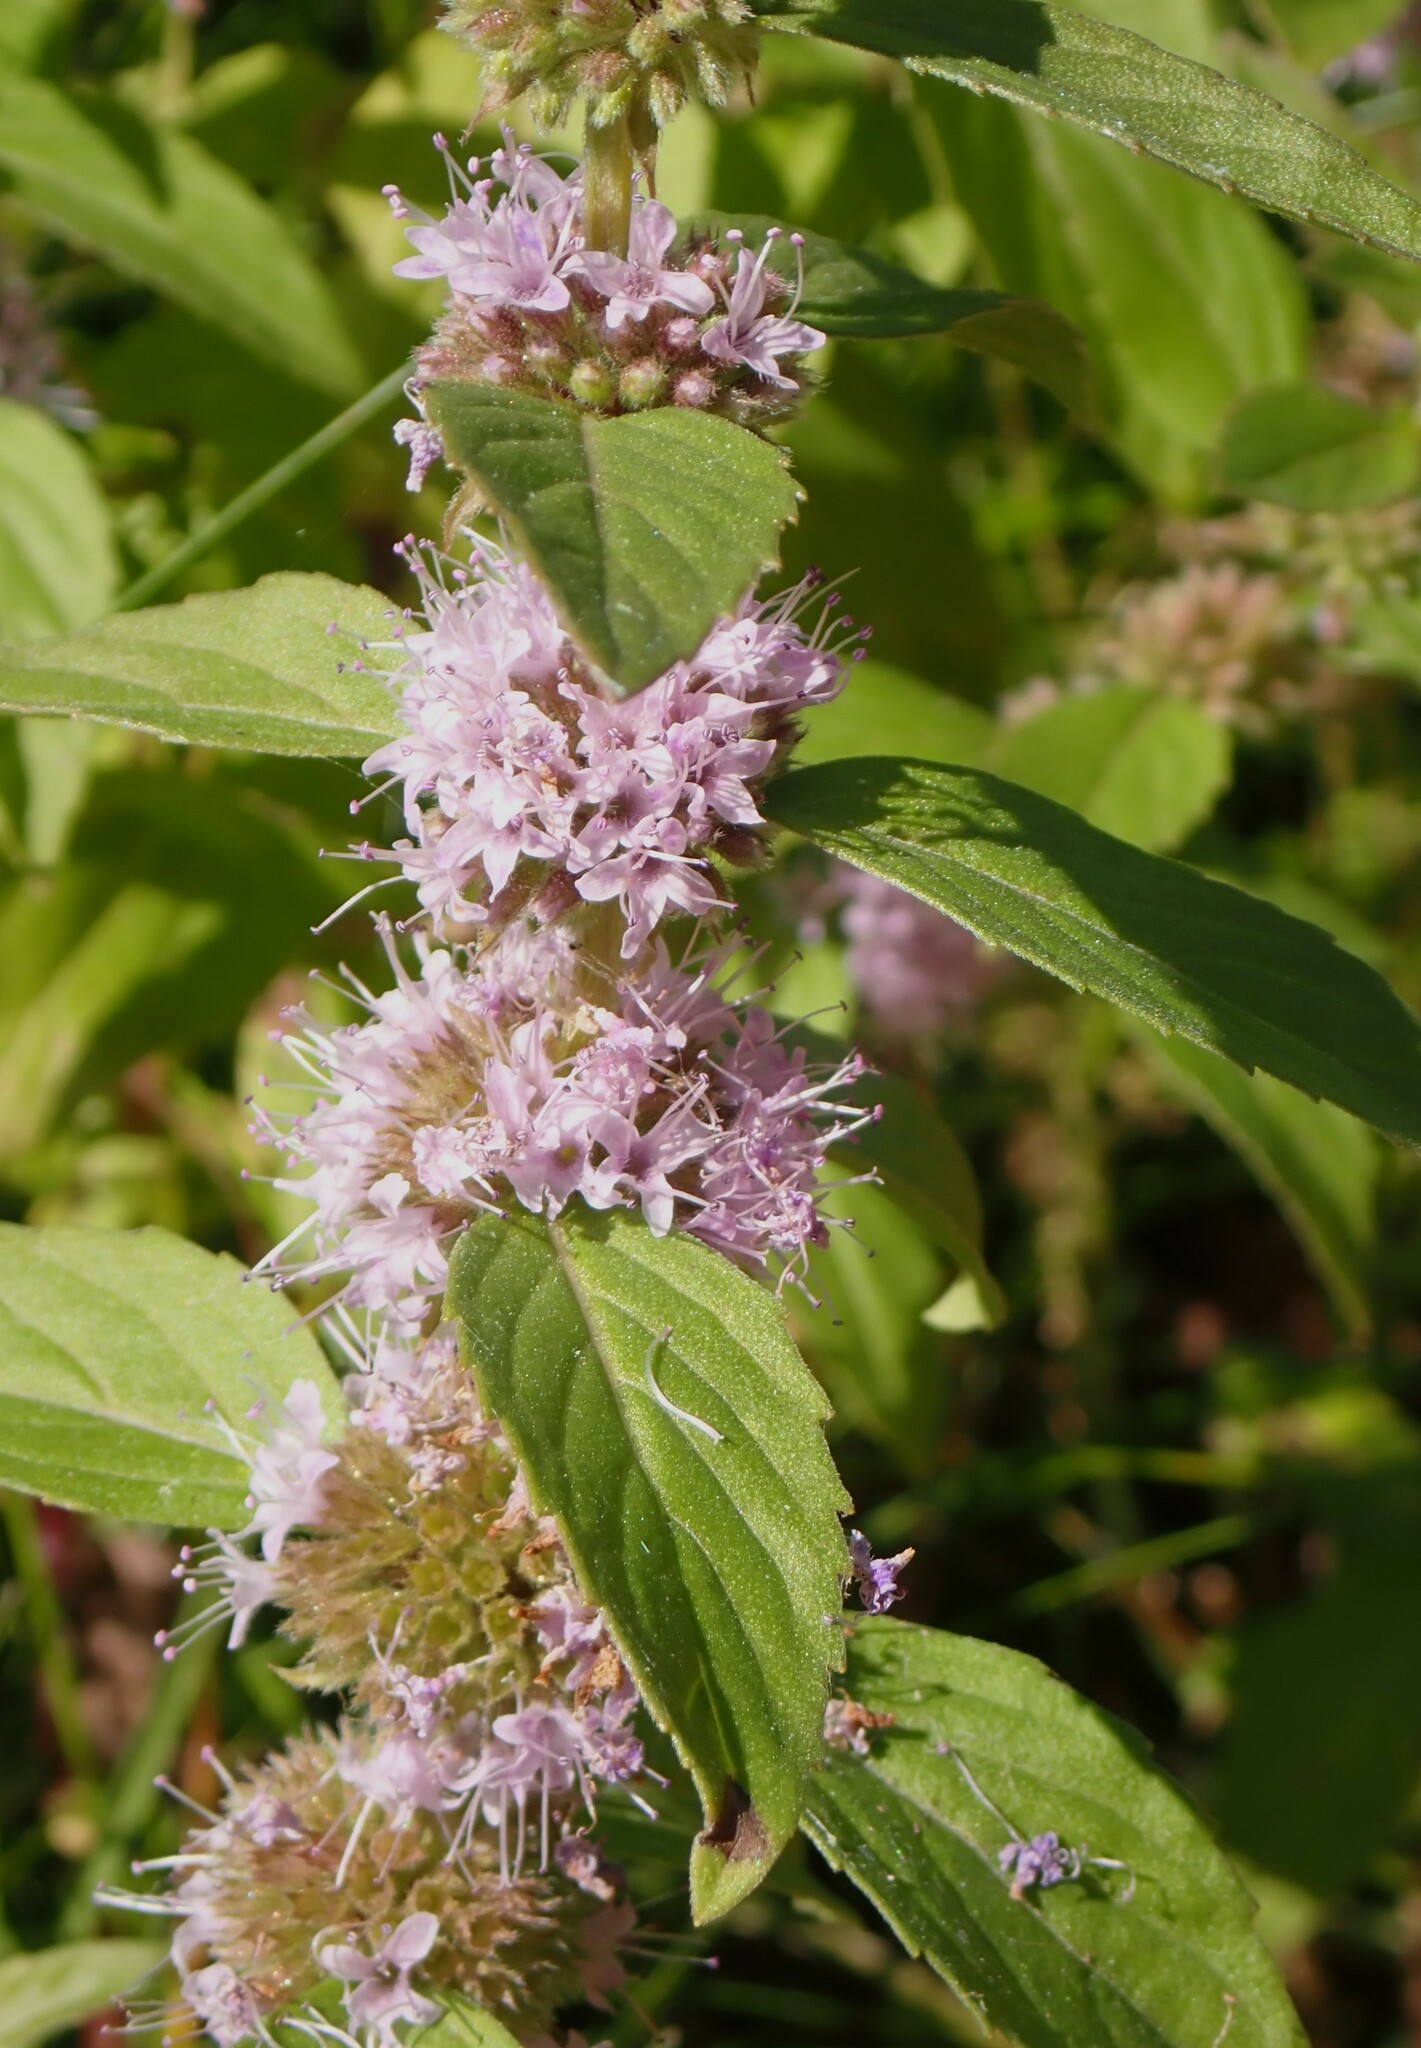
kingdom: Plantae
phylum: Tracheophyta
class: Magnoliopsida
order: Lamiales
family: Lamiaceae
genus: Mentha
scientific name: Mentha canadensis
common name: American corn mint
